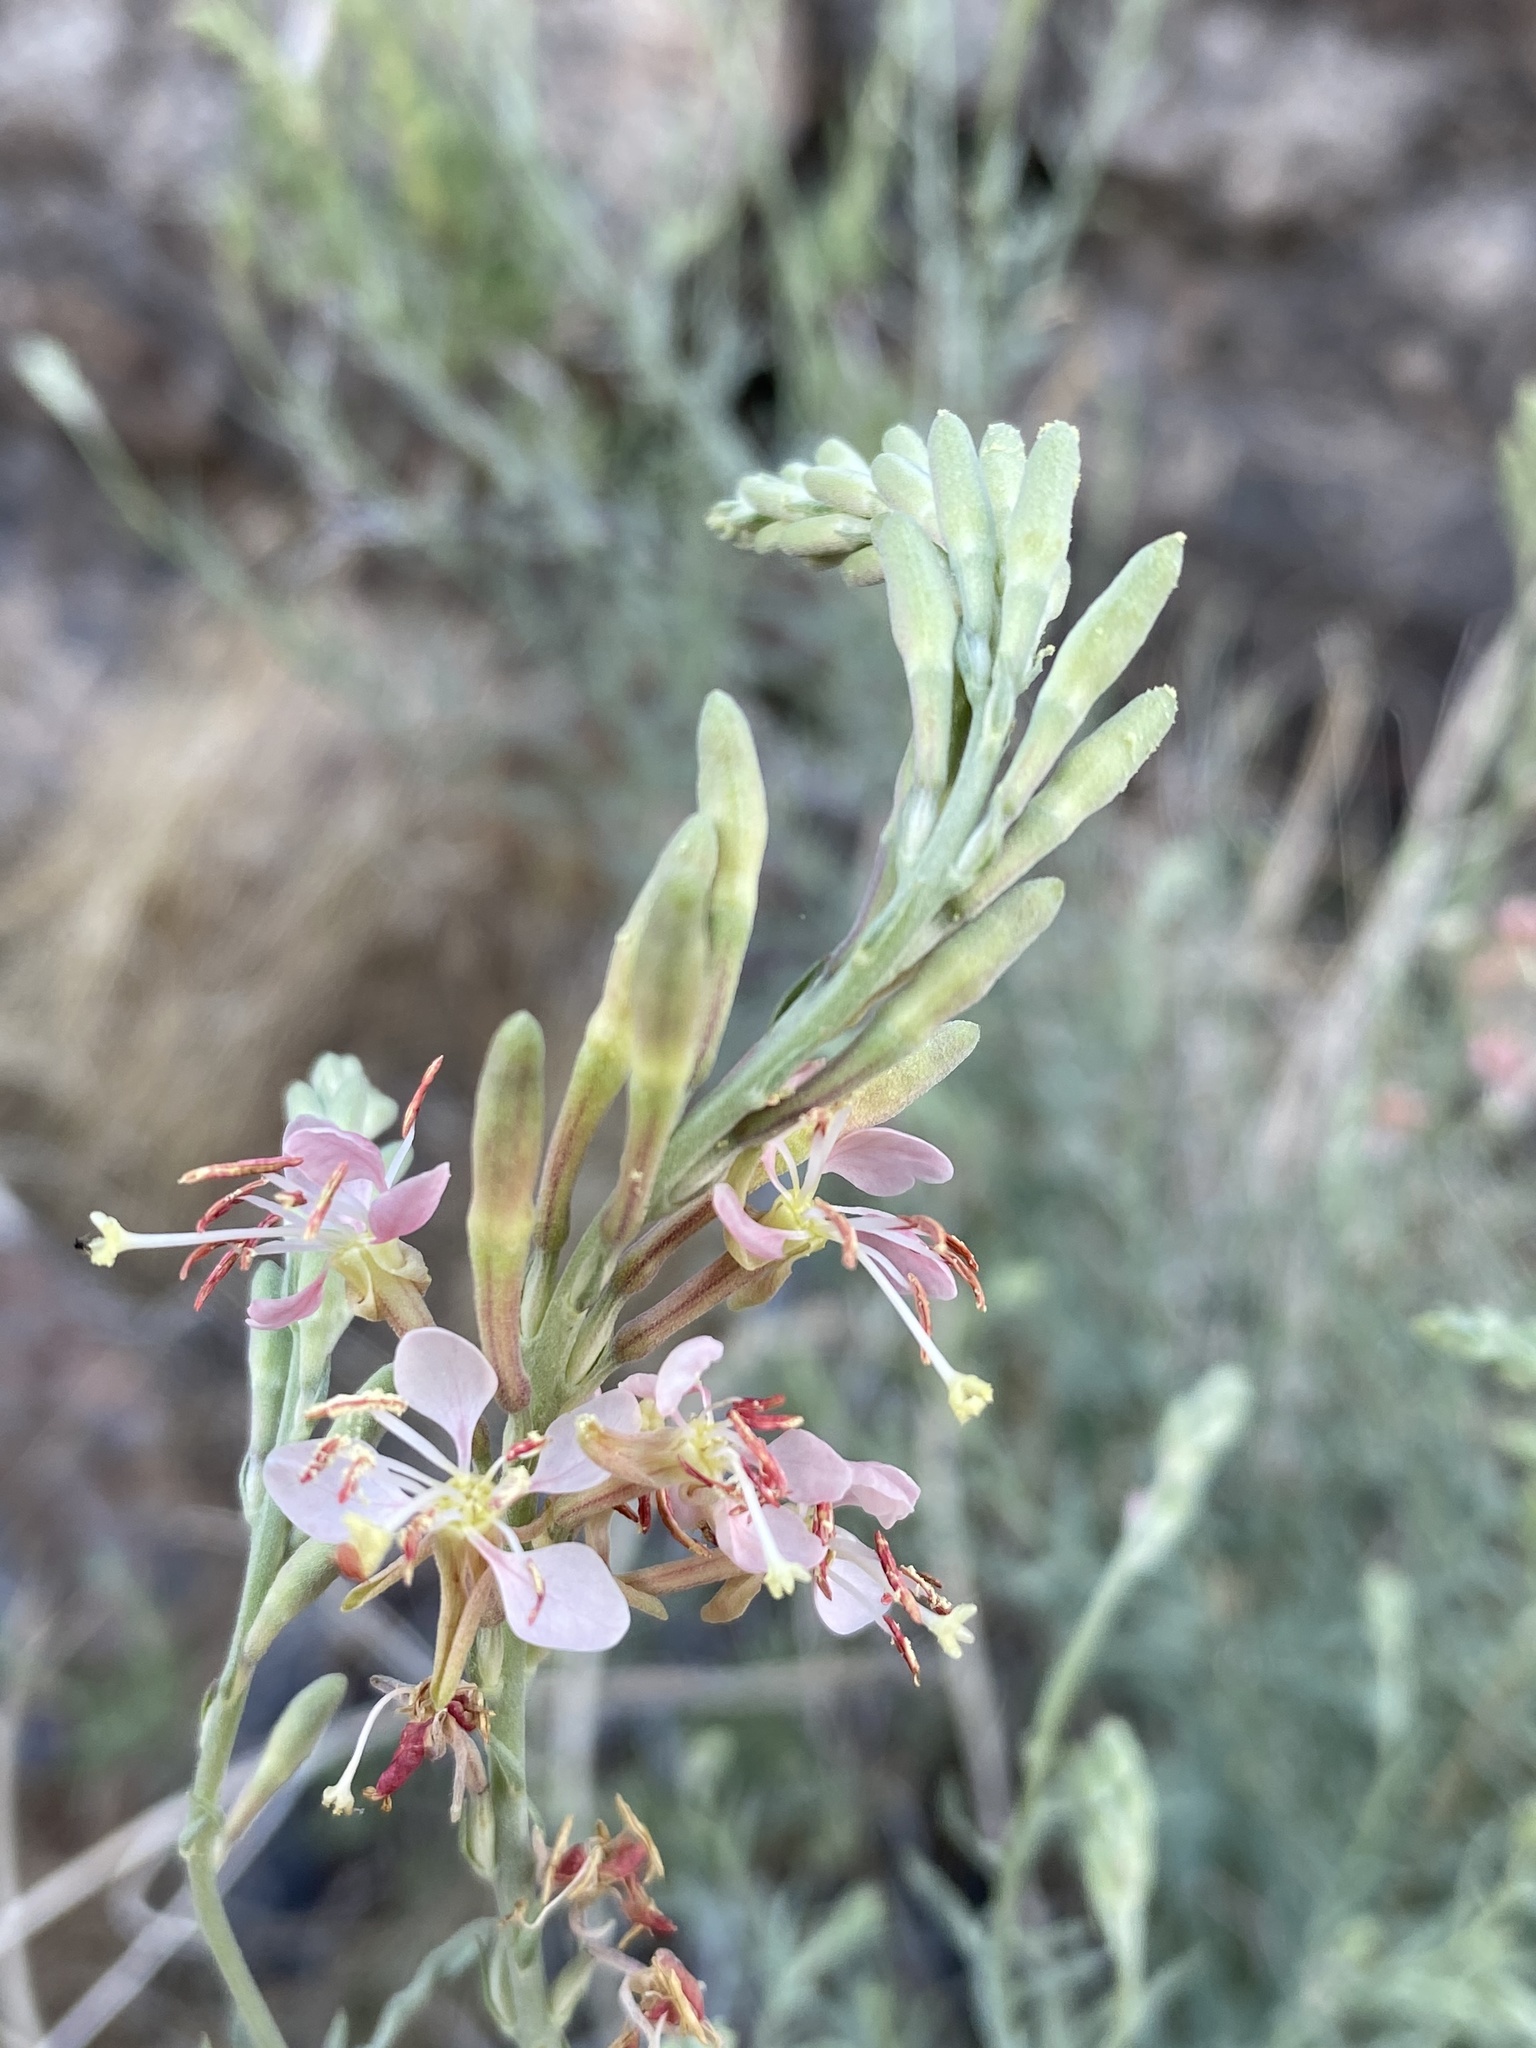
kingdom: Plantae
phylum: Tracheophyta
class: Magnoliopsida
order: Myrtales
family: Onagraceae
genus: Oenothera
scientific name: Oenothera suffrutescens
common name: Scarlet beeblossom
